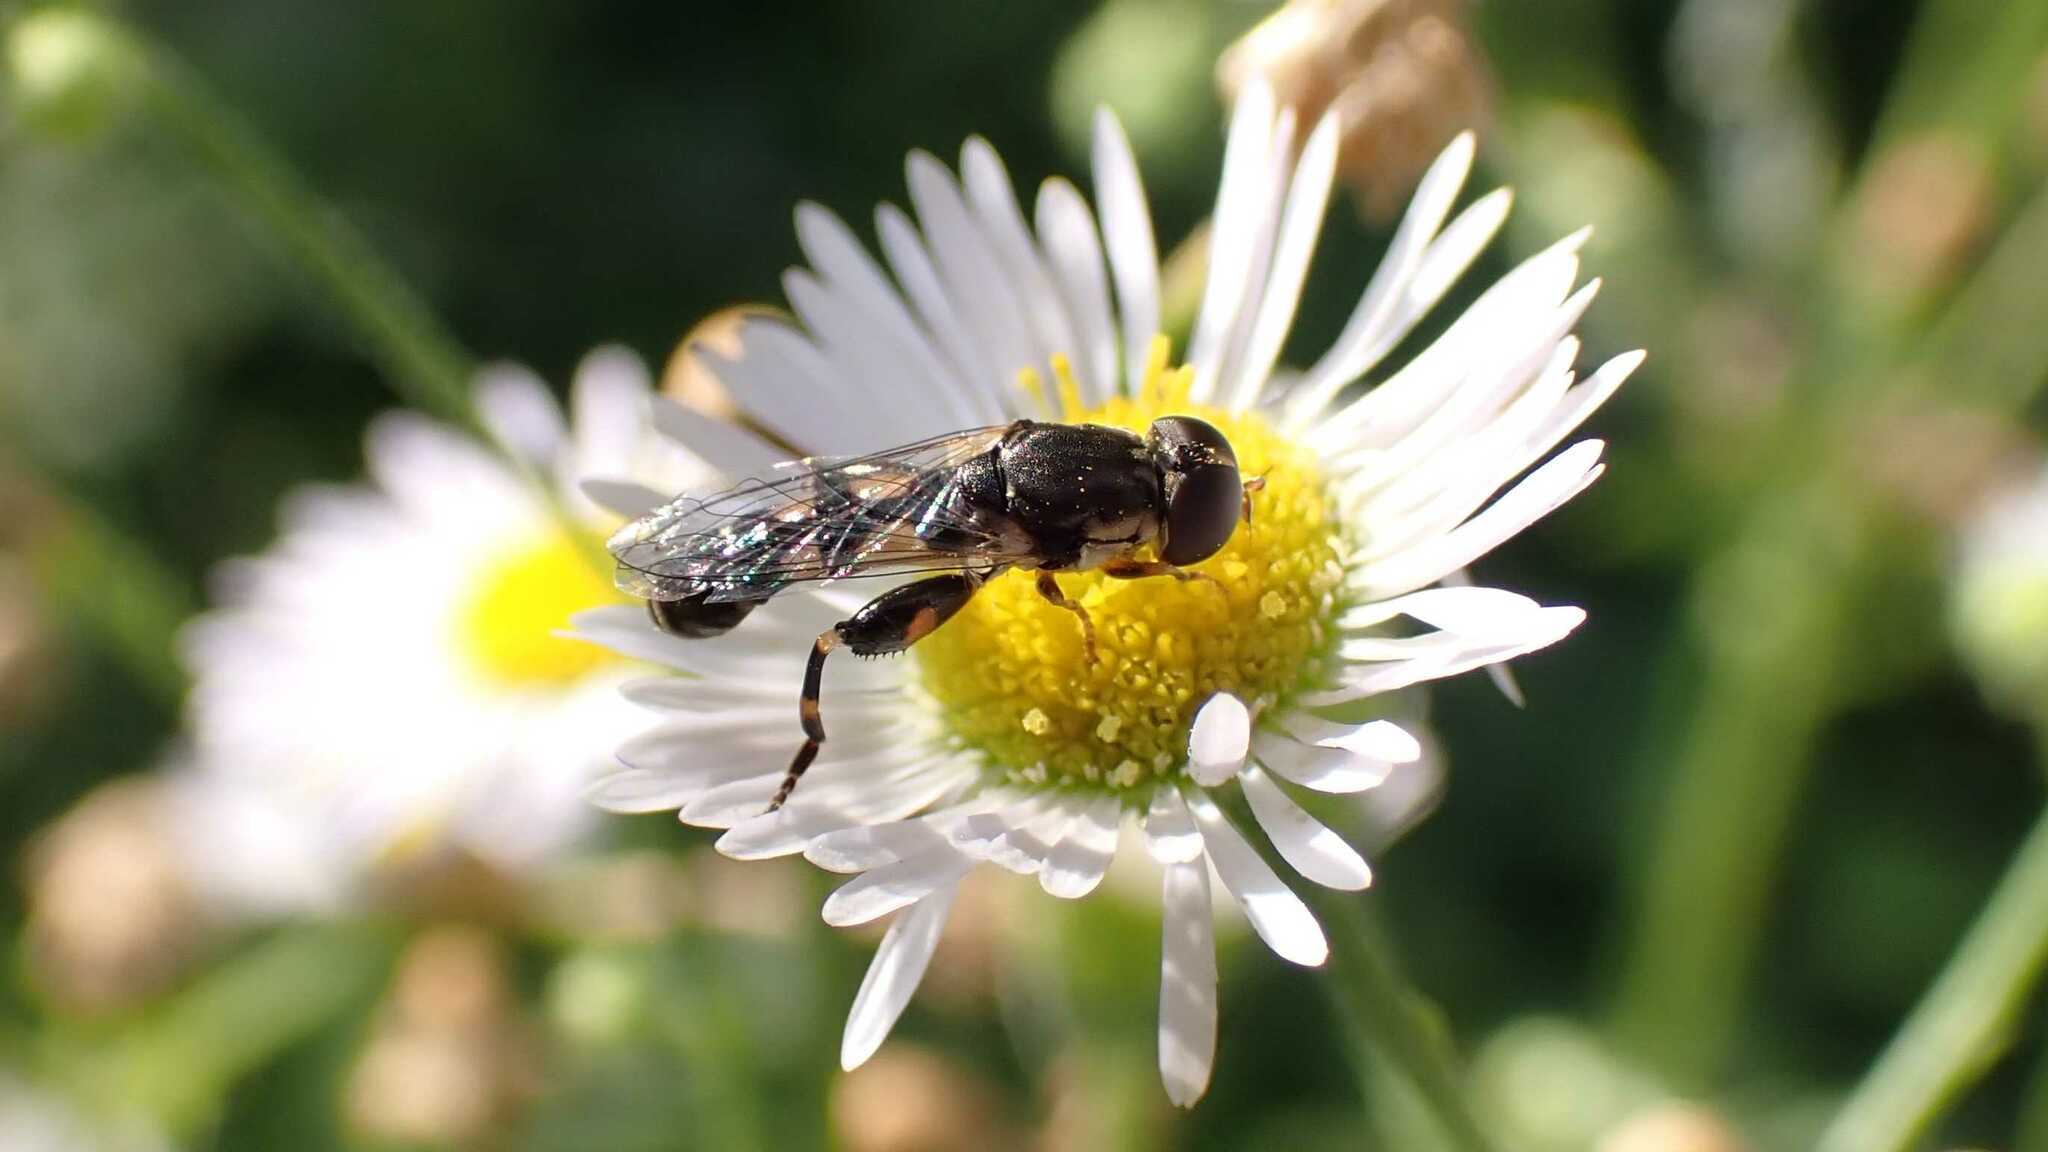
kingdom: Animalia
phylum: Arthropoda
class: Insecta
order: Diptera
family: Syrphidae
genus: Syritta
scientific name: Syritta pipiens
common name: Hover fly
